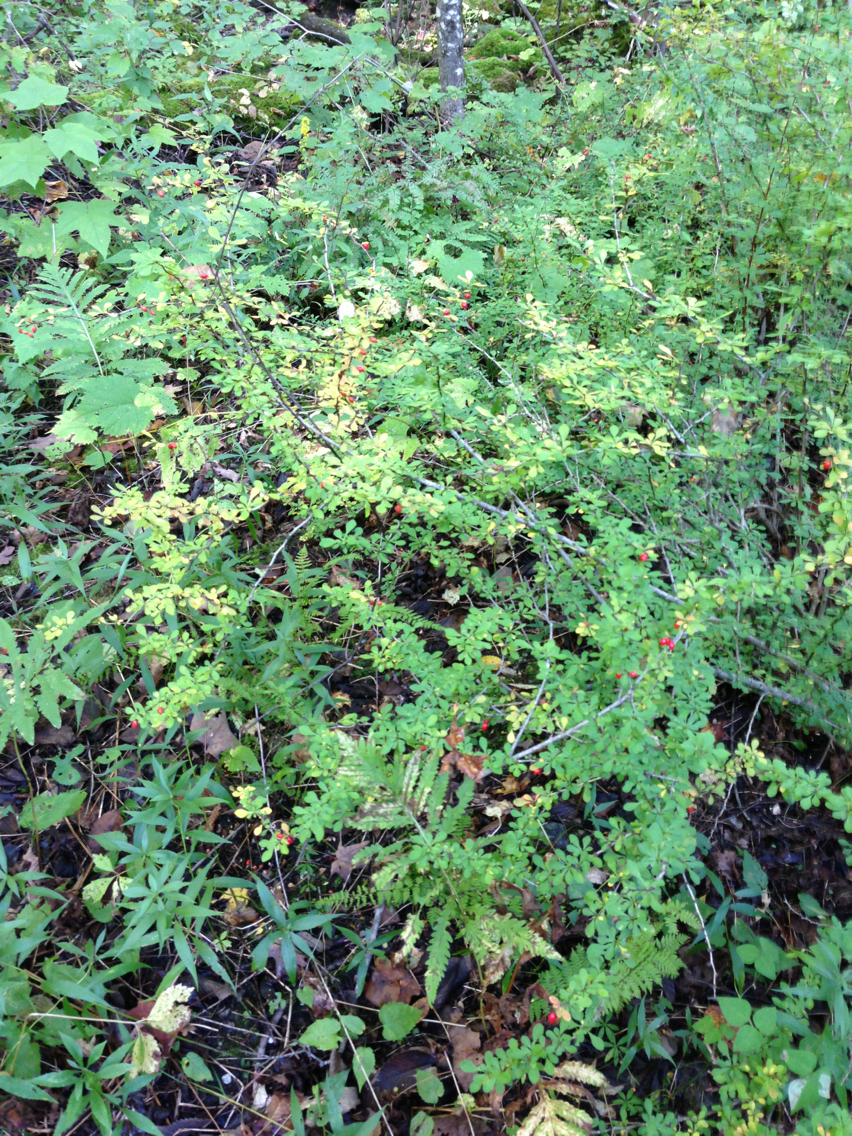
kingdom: Plantae
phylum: Tracheophyta
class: Magnoliopsida
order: Ranunculales
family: Berberidaceae
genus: Berberis
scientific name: Berberis thunbergii
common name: Japanese barberry
